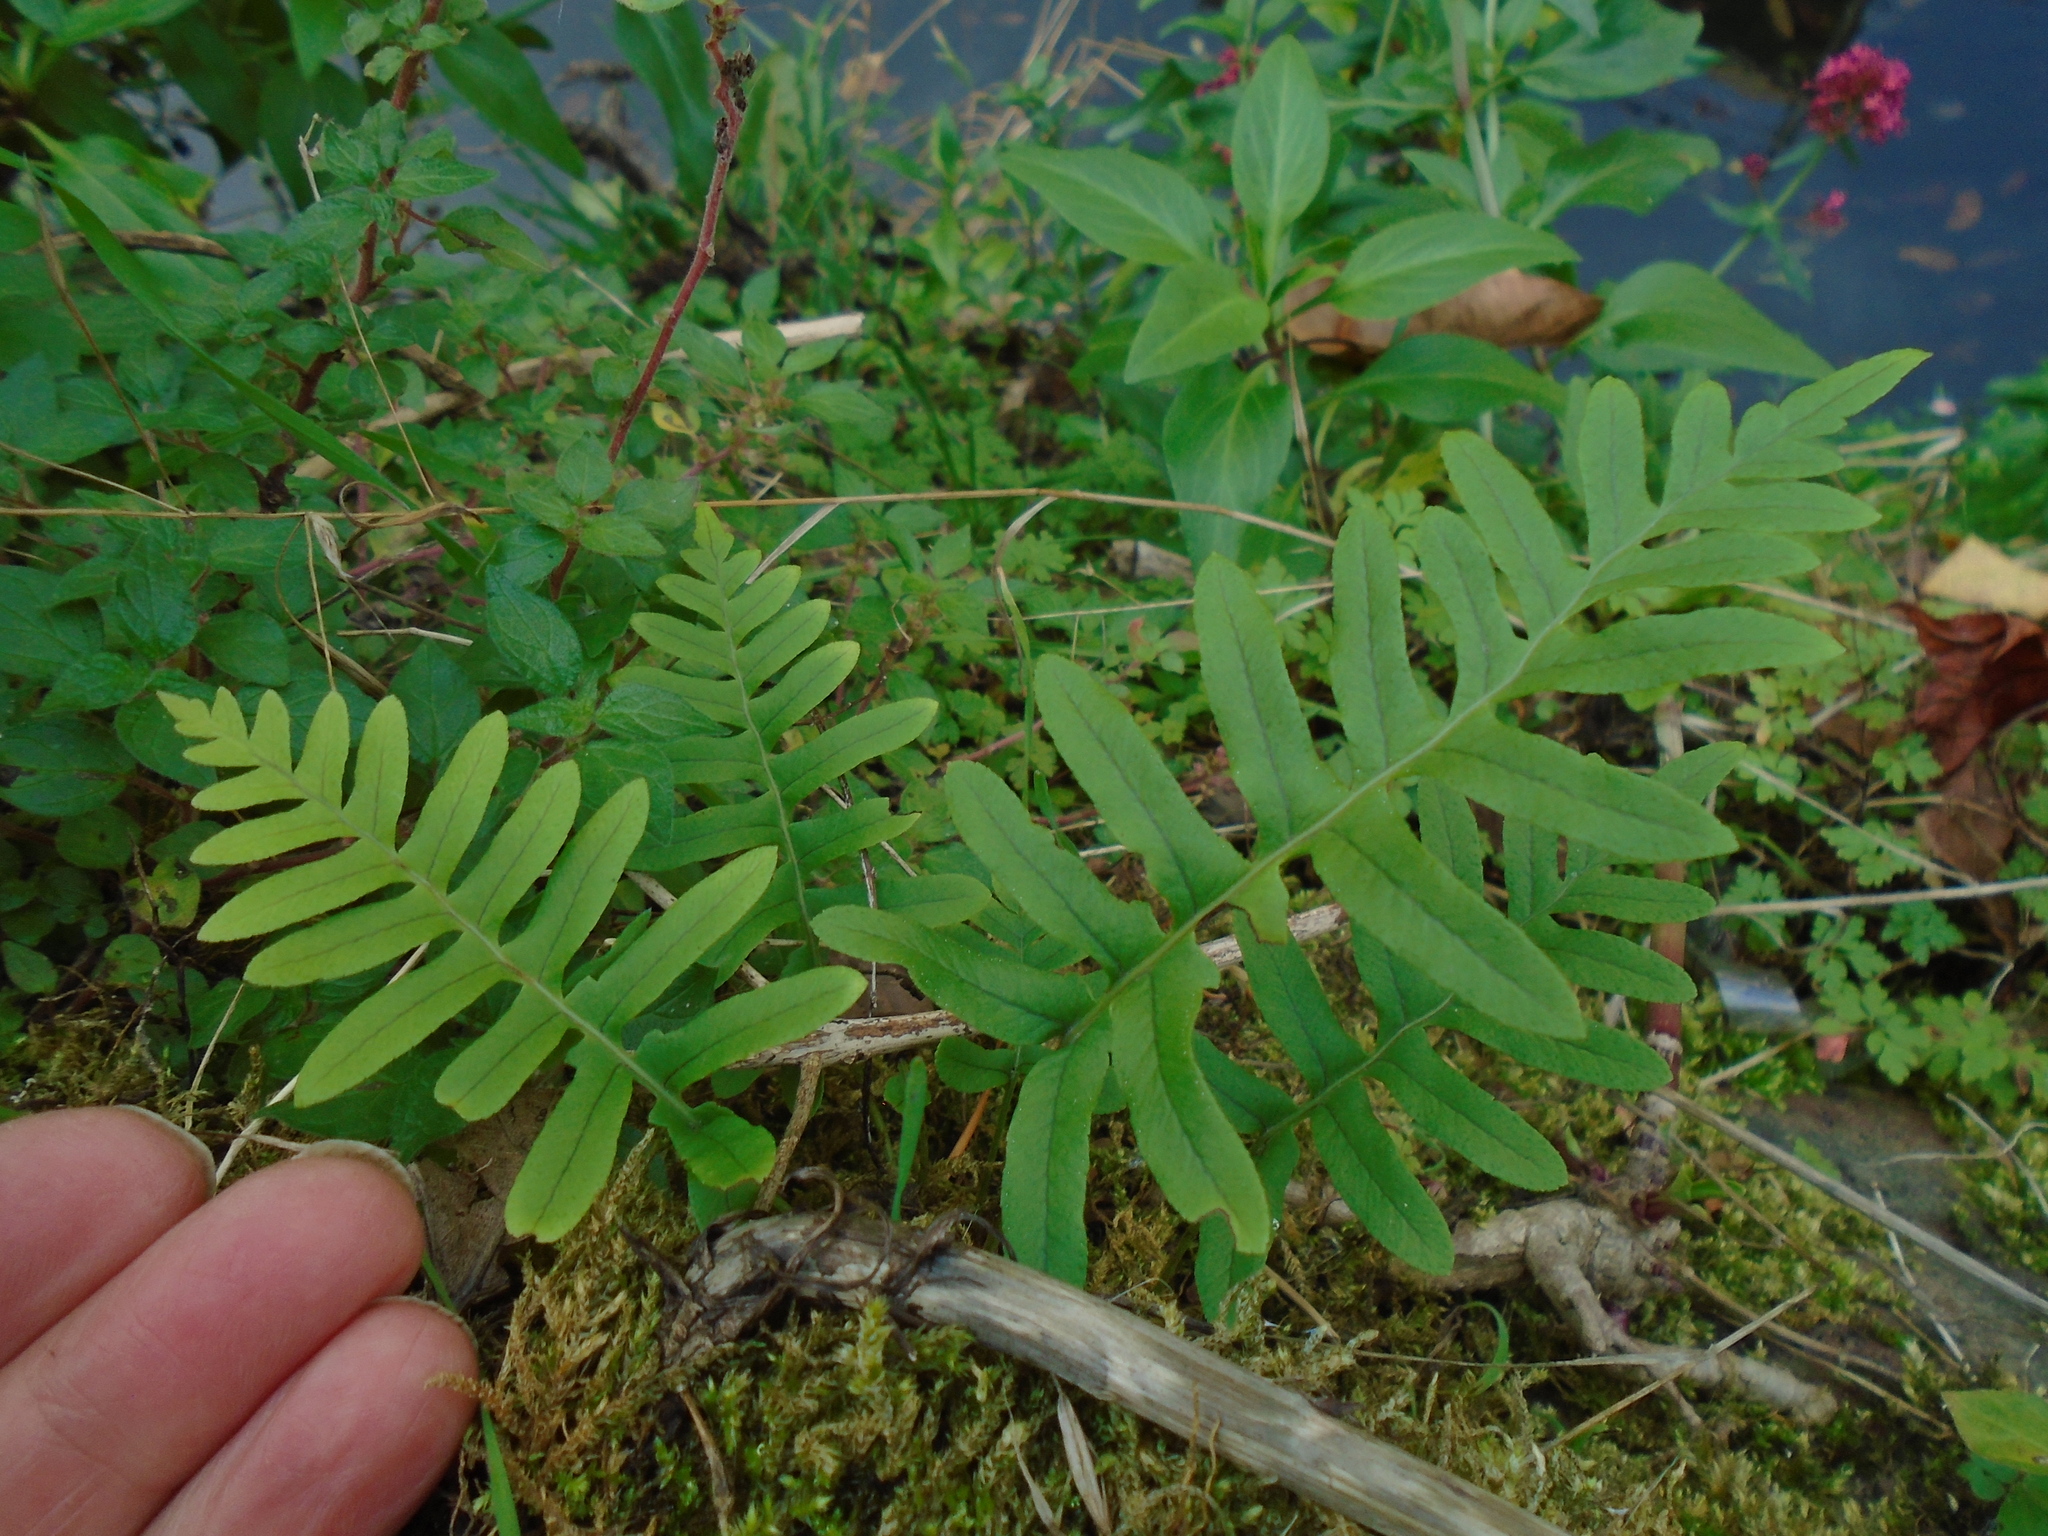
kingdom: Plantae
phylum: Tracheophyta
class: Polypodiopsida
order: Polypodiales
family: Polypodiaceae
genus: Polypodium
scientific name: Polypodium
